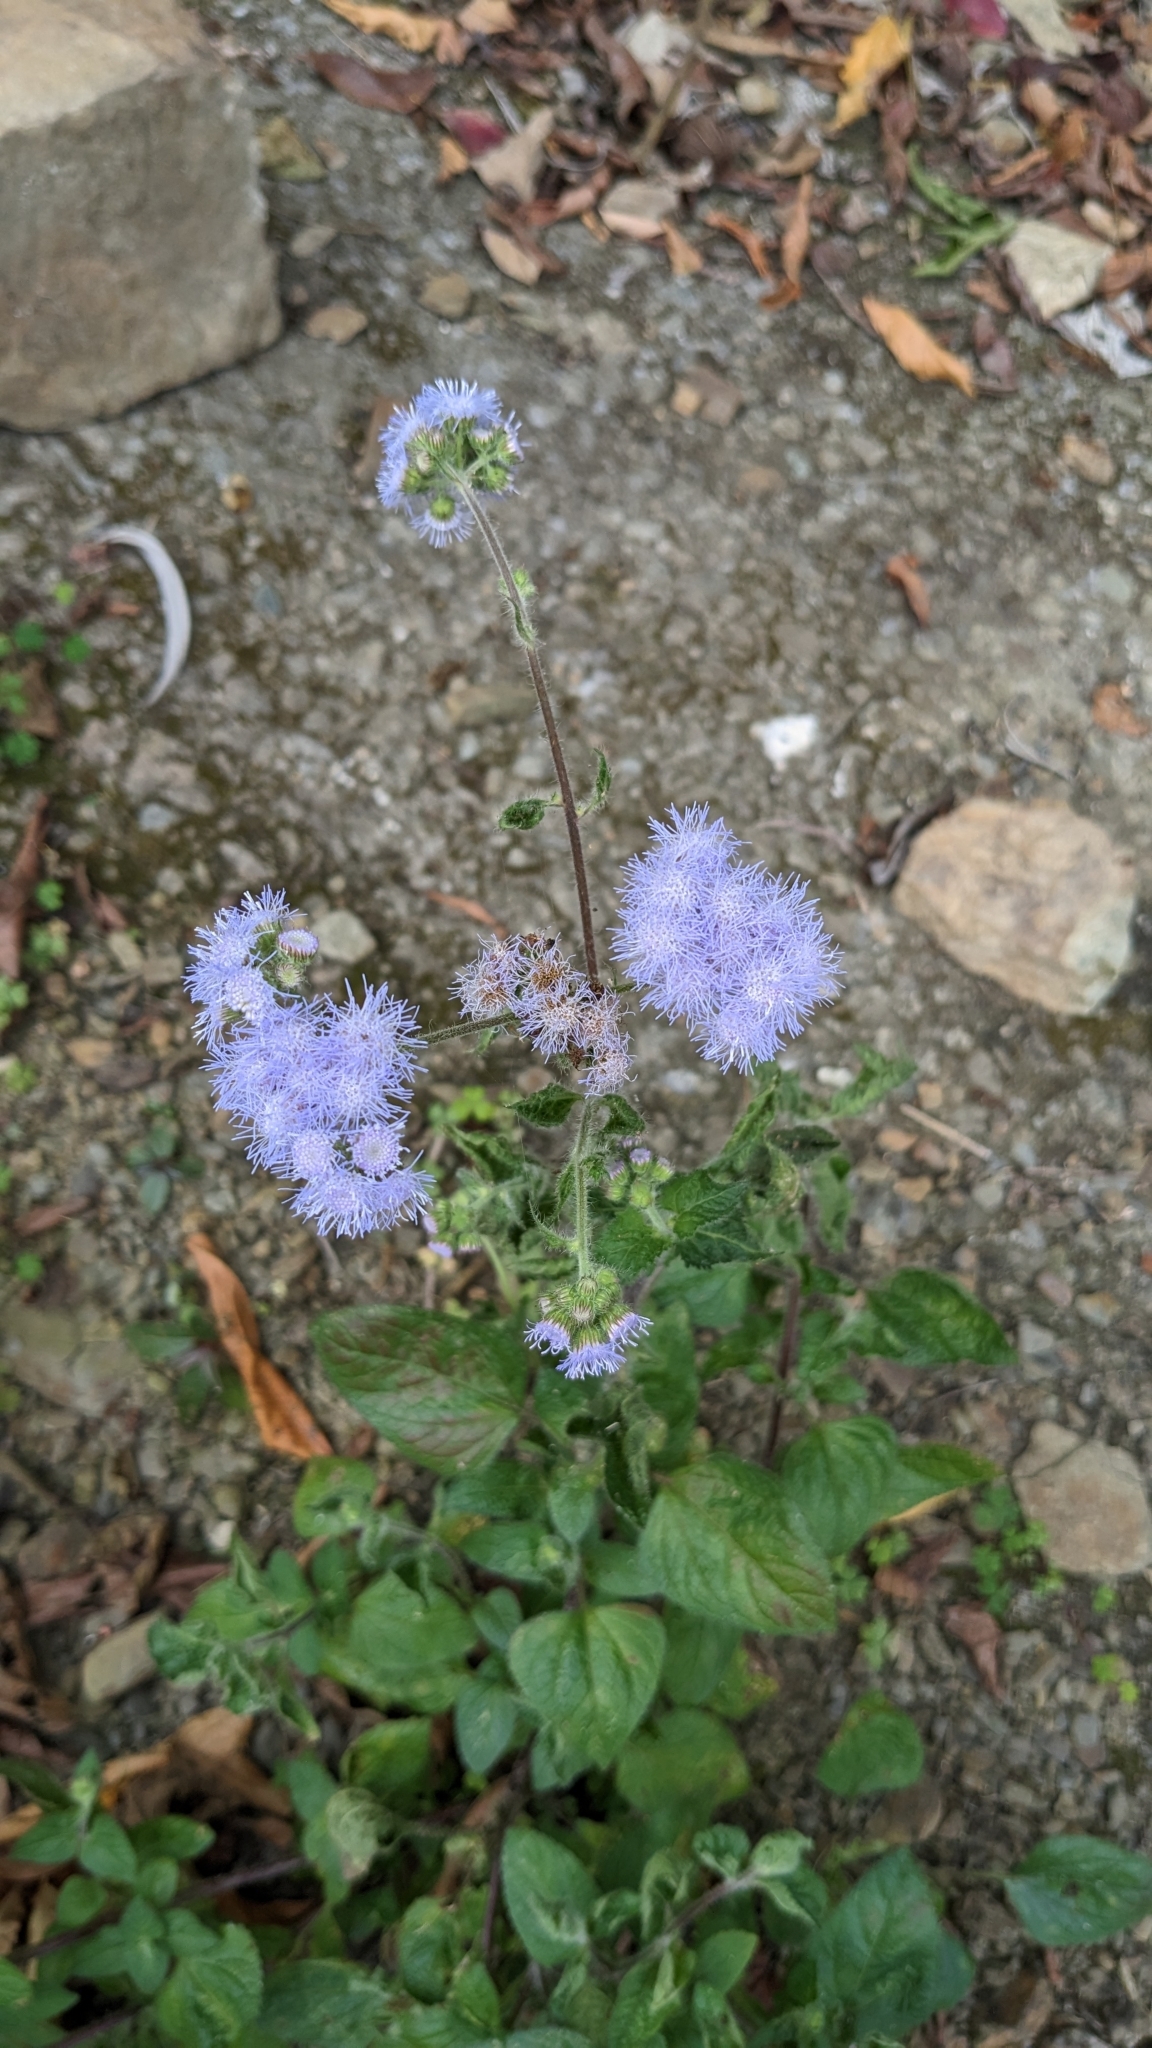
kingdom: Plantae
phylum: Tracheophyta
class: Magnoliopsida
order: Asterales
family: Asteraceae
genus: Ageratum
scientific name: Ageratum houstonianum
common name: Bluemink
